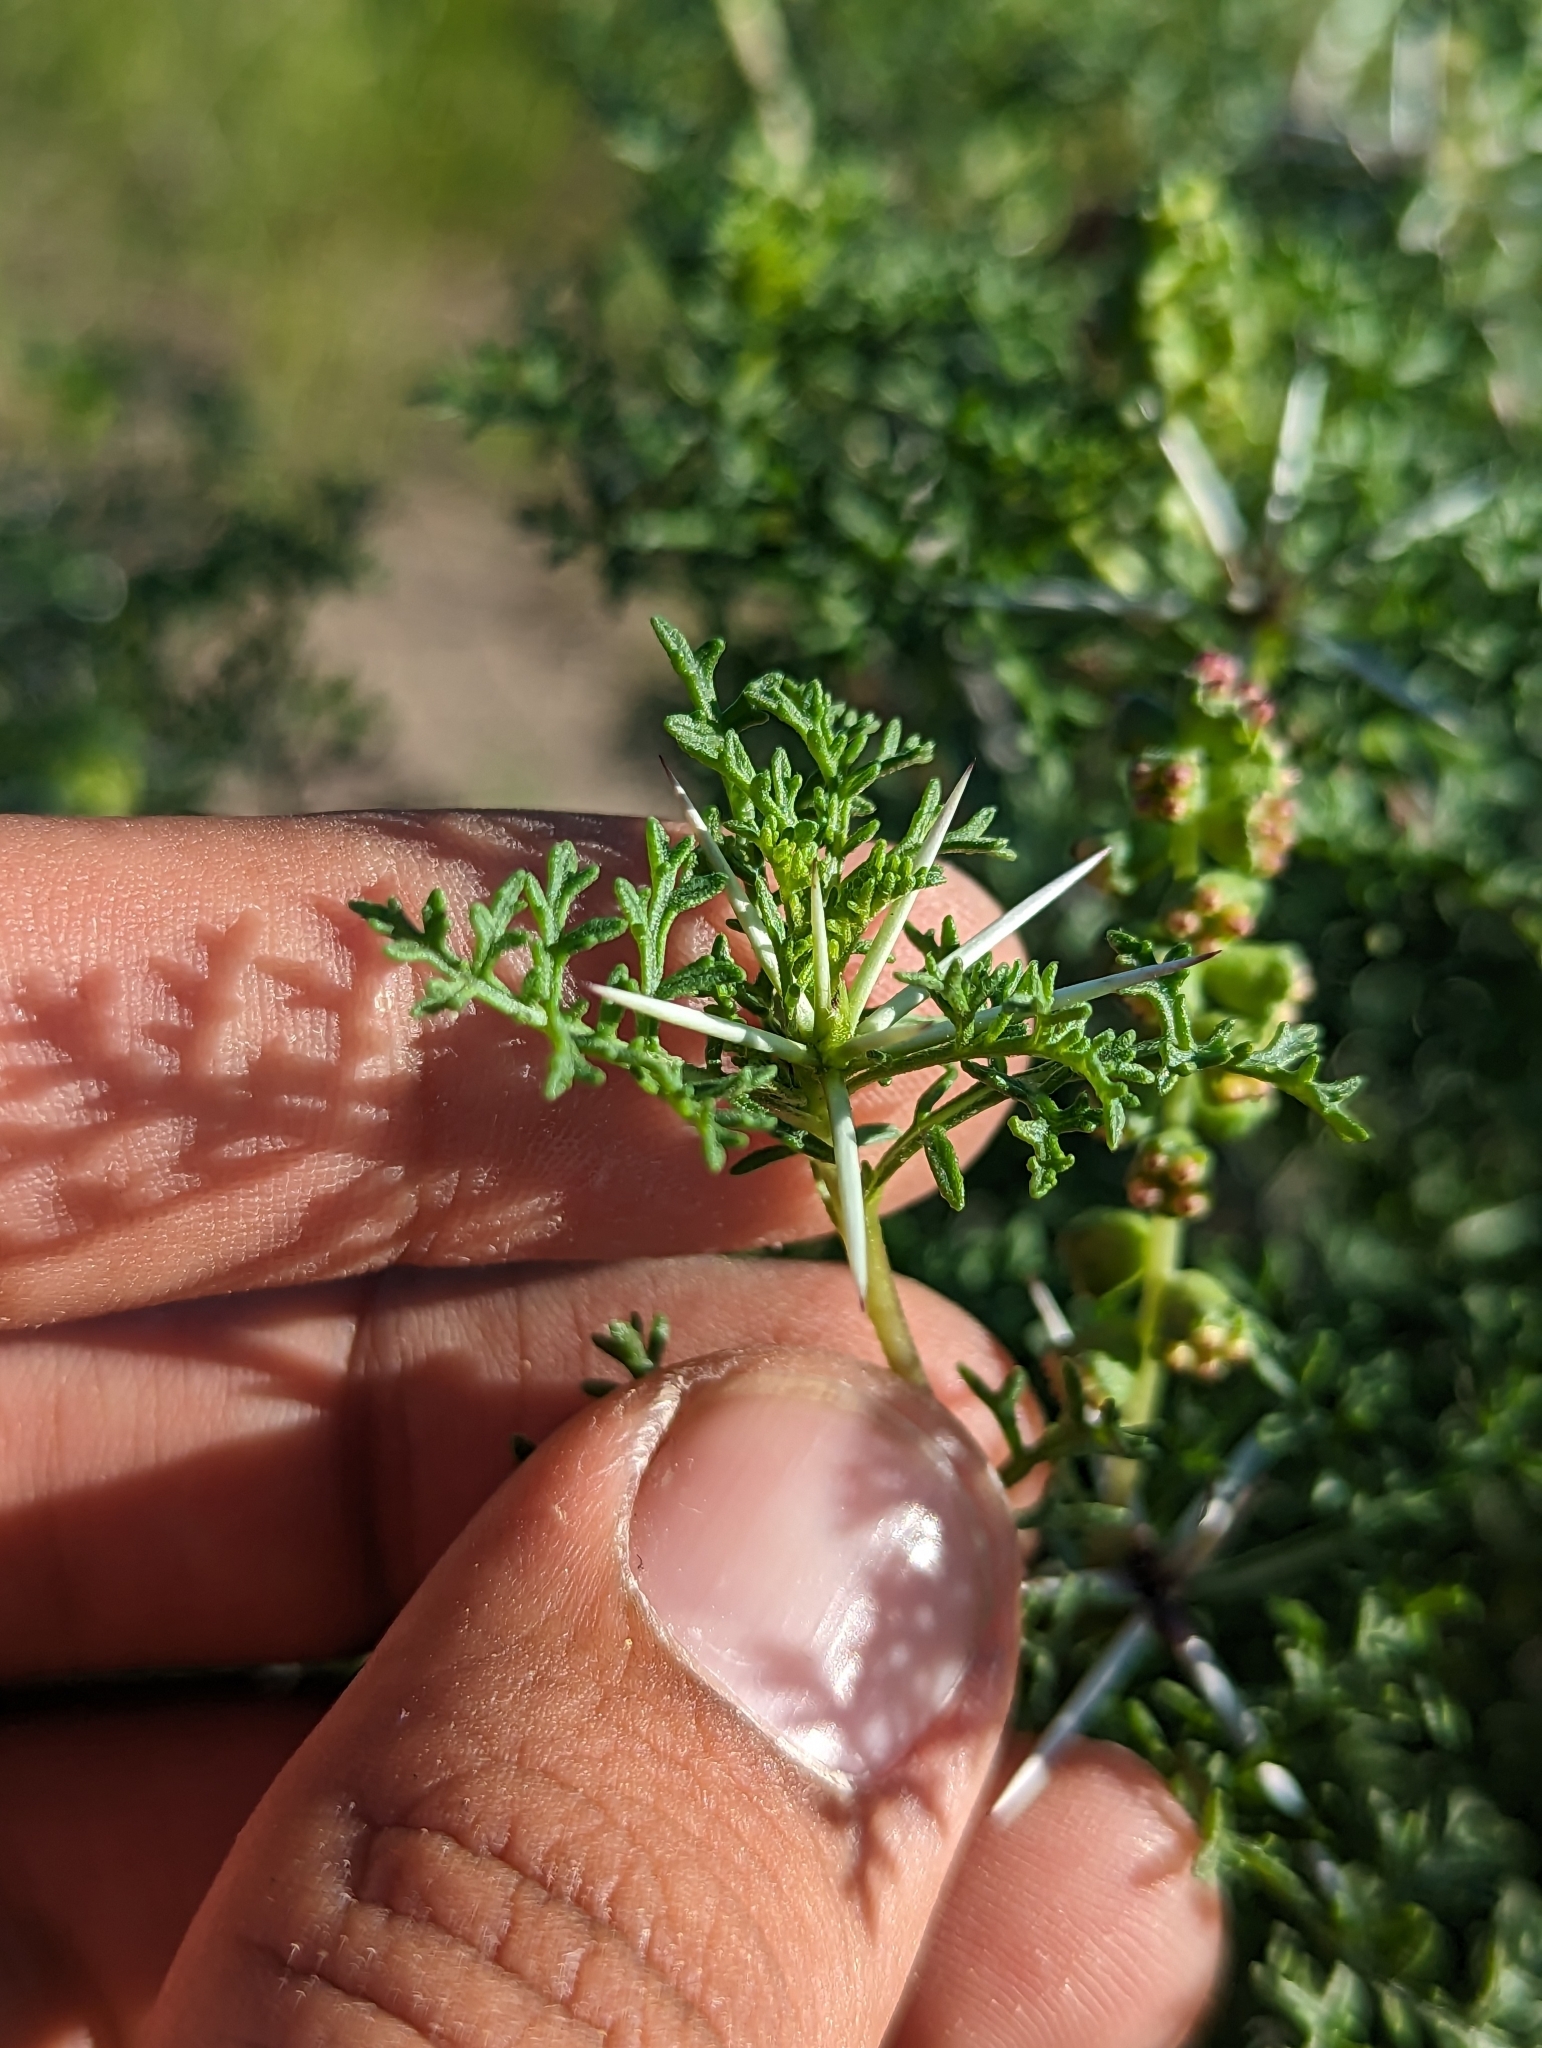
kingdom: Plantae
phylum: Tracheophyta
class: Magnoliopsida
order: Asterales
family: Asteraceae
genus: Ambrosia
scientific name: Ambrosia bryantii
